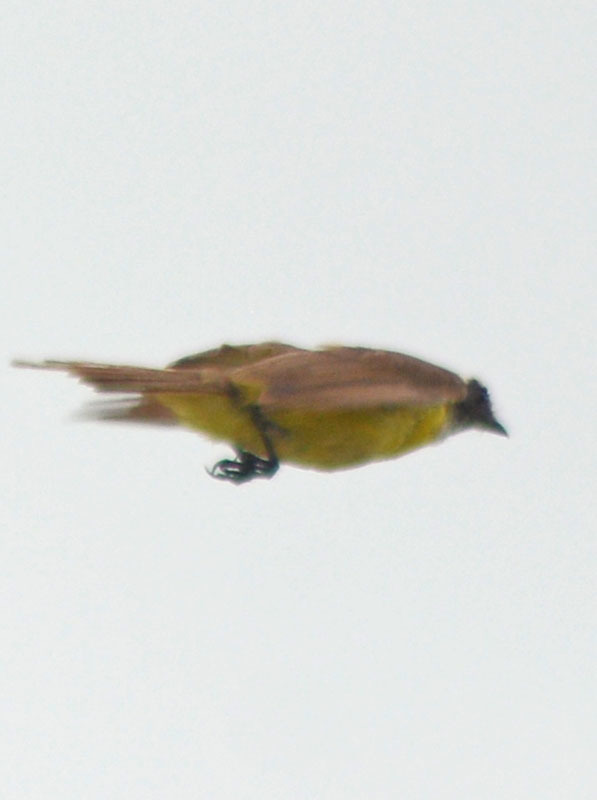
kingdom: Animalia
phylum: Chordata
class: Aves
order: Passeriformes
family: Tyrannidae
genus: Myiozetetes
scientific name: Myiozetetes similis
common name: Social flycatcher
